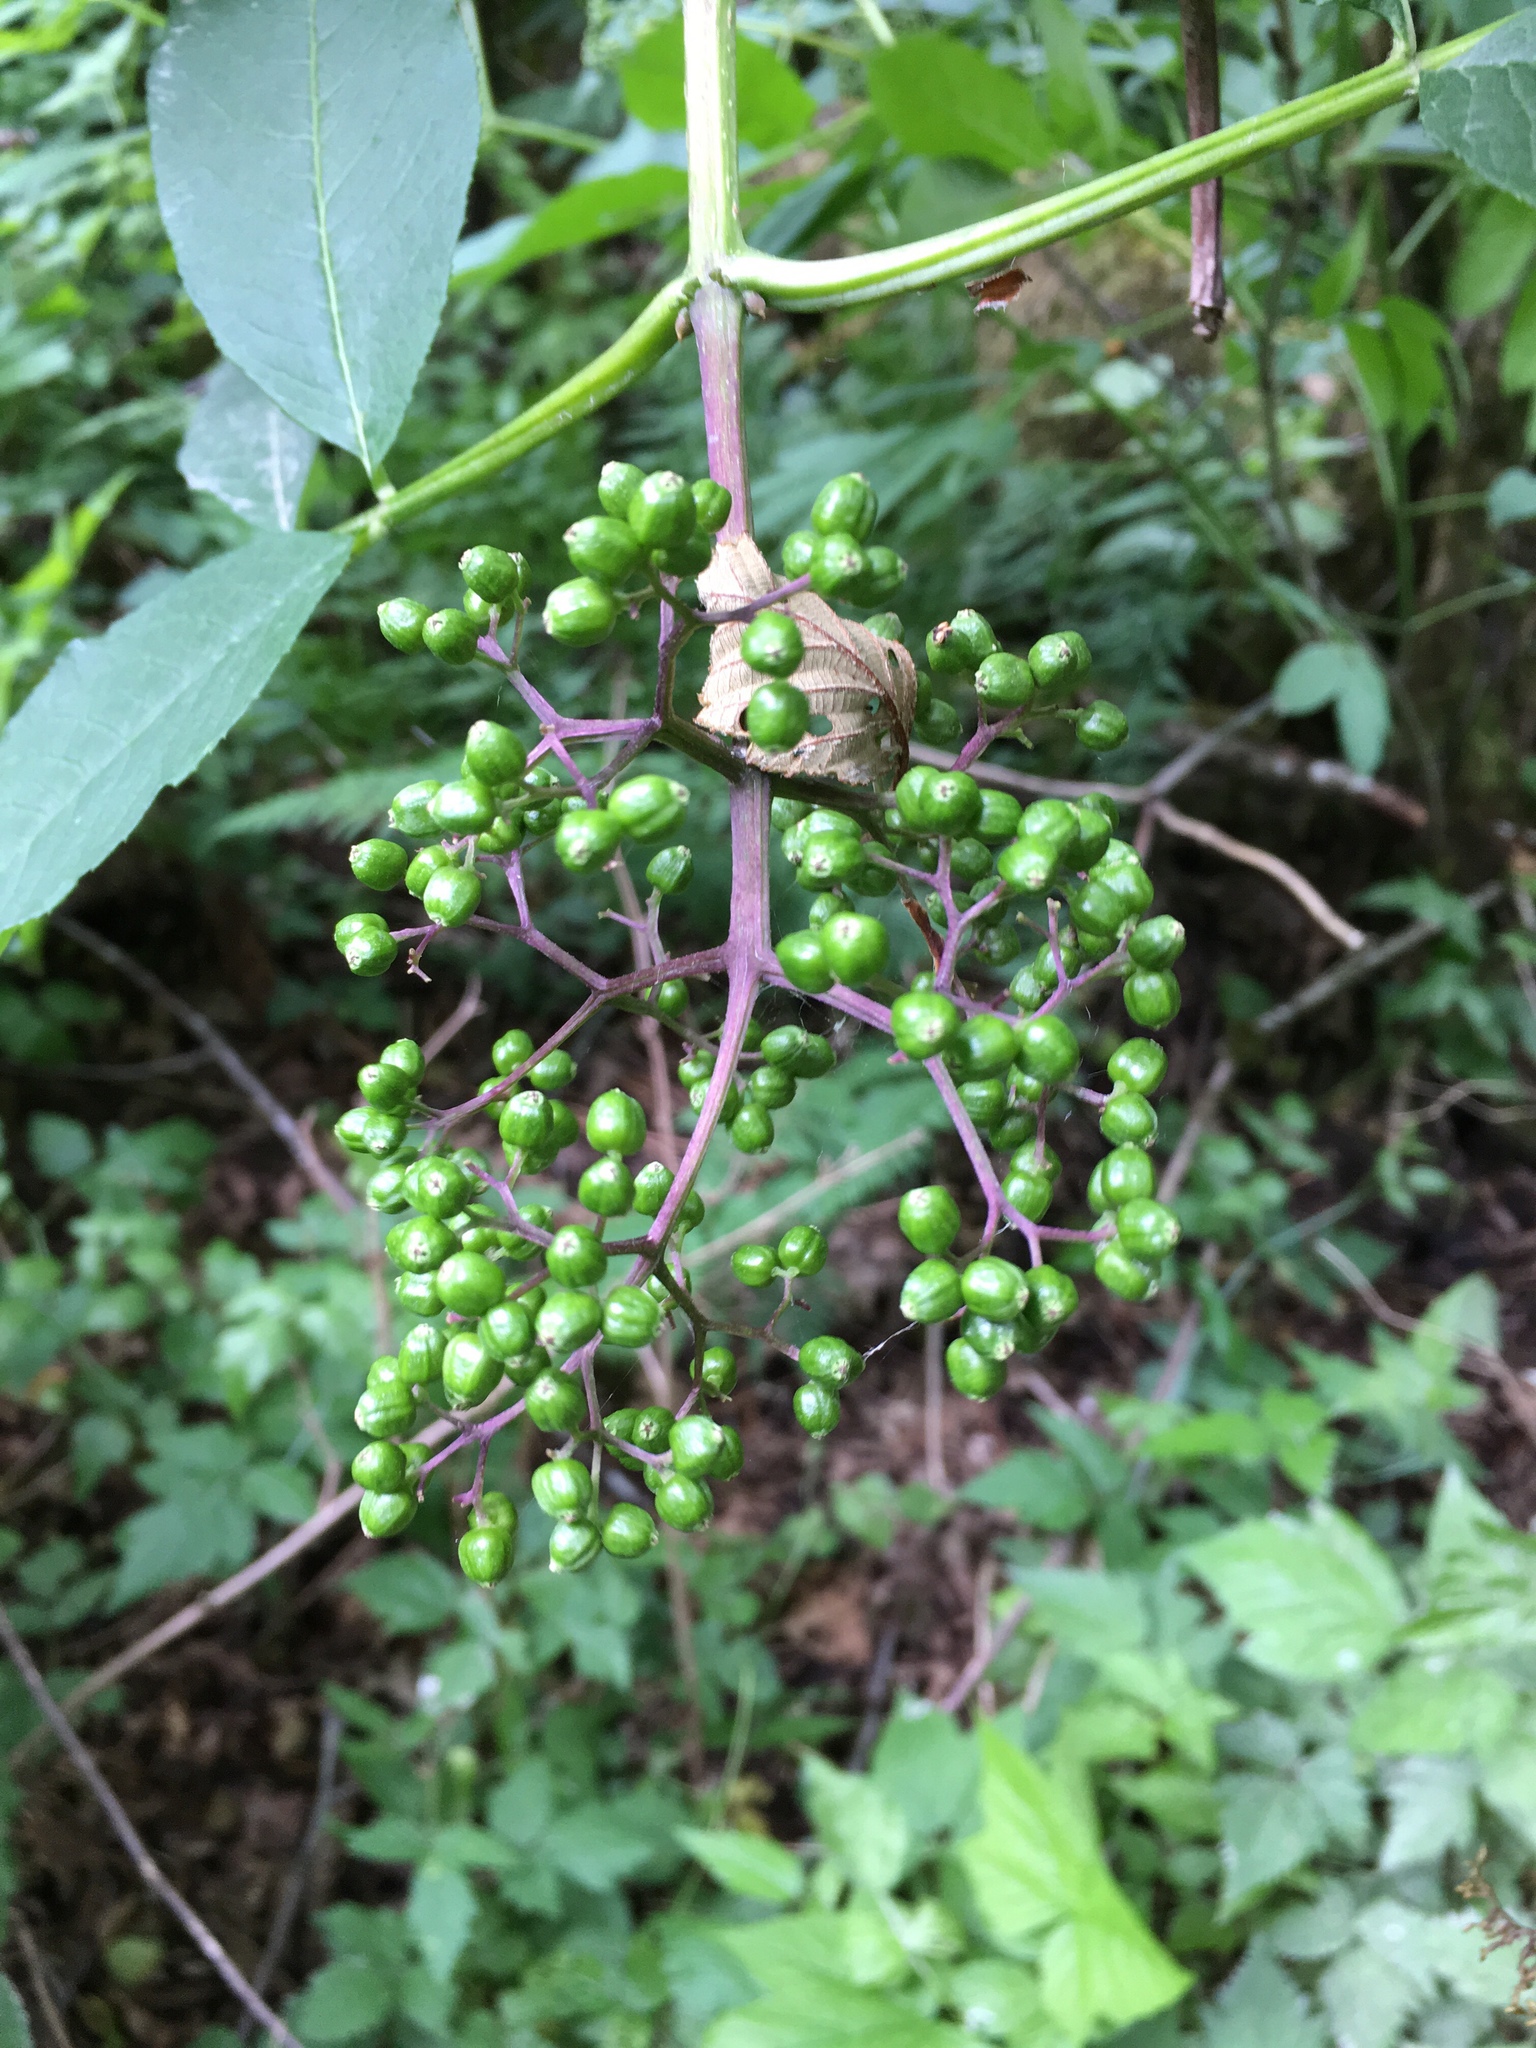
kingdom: Plantae
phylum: Tracheophyta
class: Magnoliopsida
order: Dipsacales
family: Viburnaceae
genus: Sambucus
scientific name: Sambucus racemosa
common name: Red-berried elder
